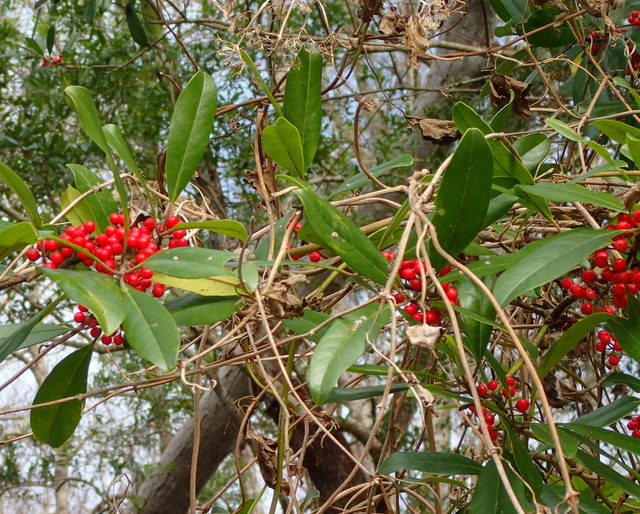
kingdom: Plantae
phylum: Tracheophyta
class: Magnoliopsida
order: Aquifoliales
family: Aquifoliaceae
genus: Ilex
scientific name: Ilex cassine
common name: Dahoon
